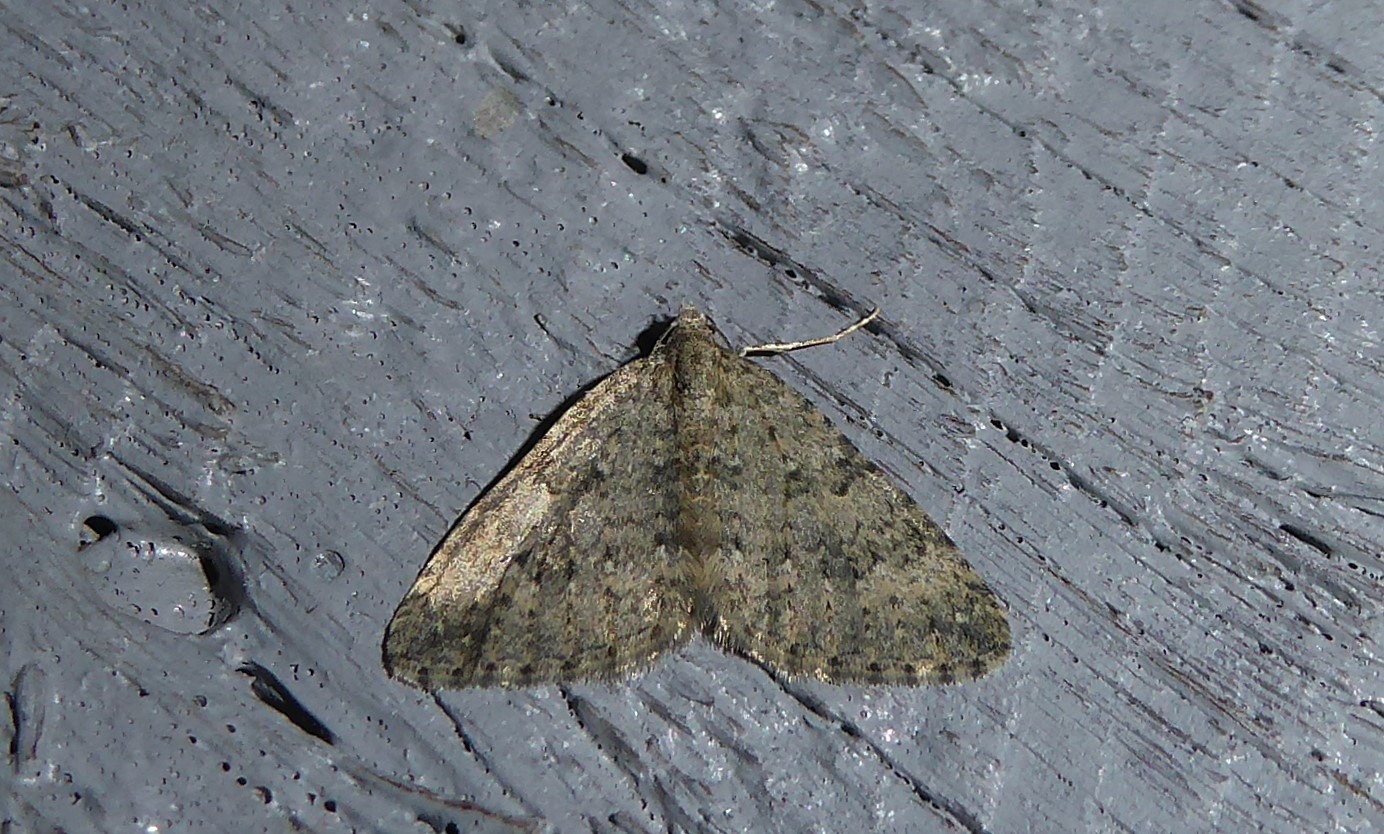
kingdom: Animalia
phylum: Arthropoda
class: Insecta
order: Lepidoptera
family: Geometridae
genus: Helastia
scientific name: Helastia corcularia
